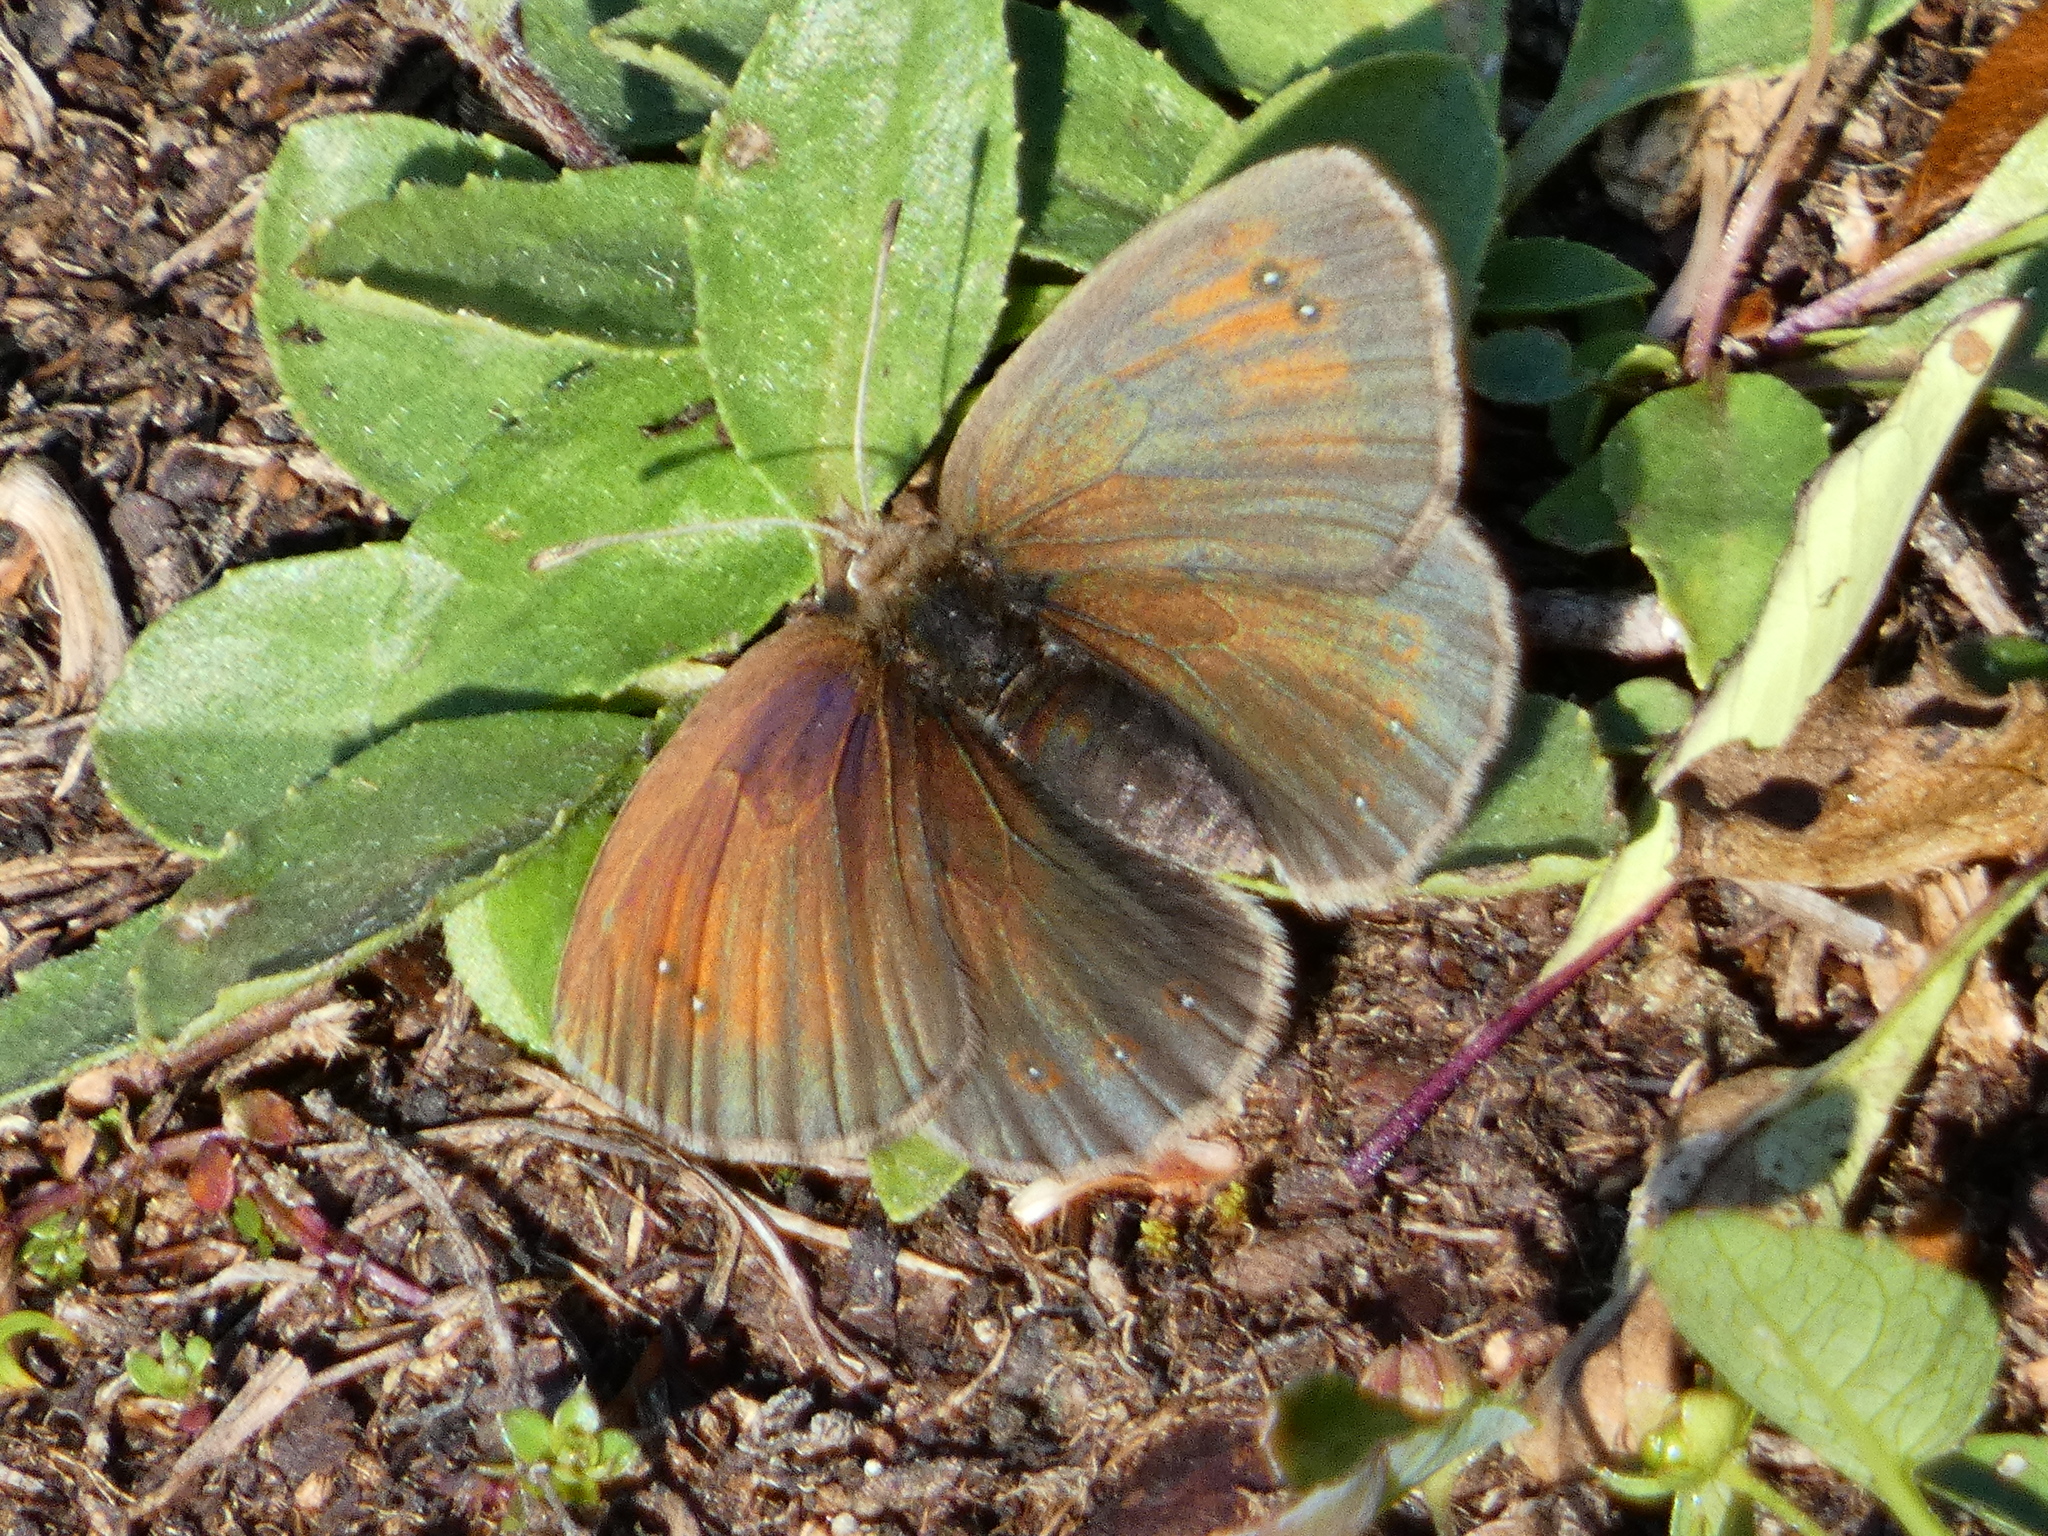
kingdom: Animalia
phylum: Arthropoda
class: Insecta
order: Lepidoptera
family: Nymphalidae
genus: Erebia
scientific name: Erebia tyndarus
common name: Swiss brassy ringlet
